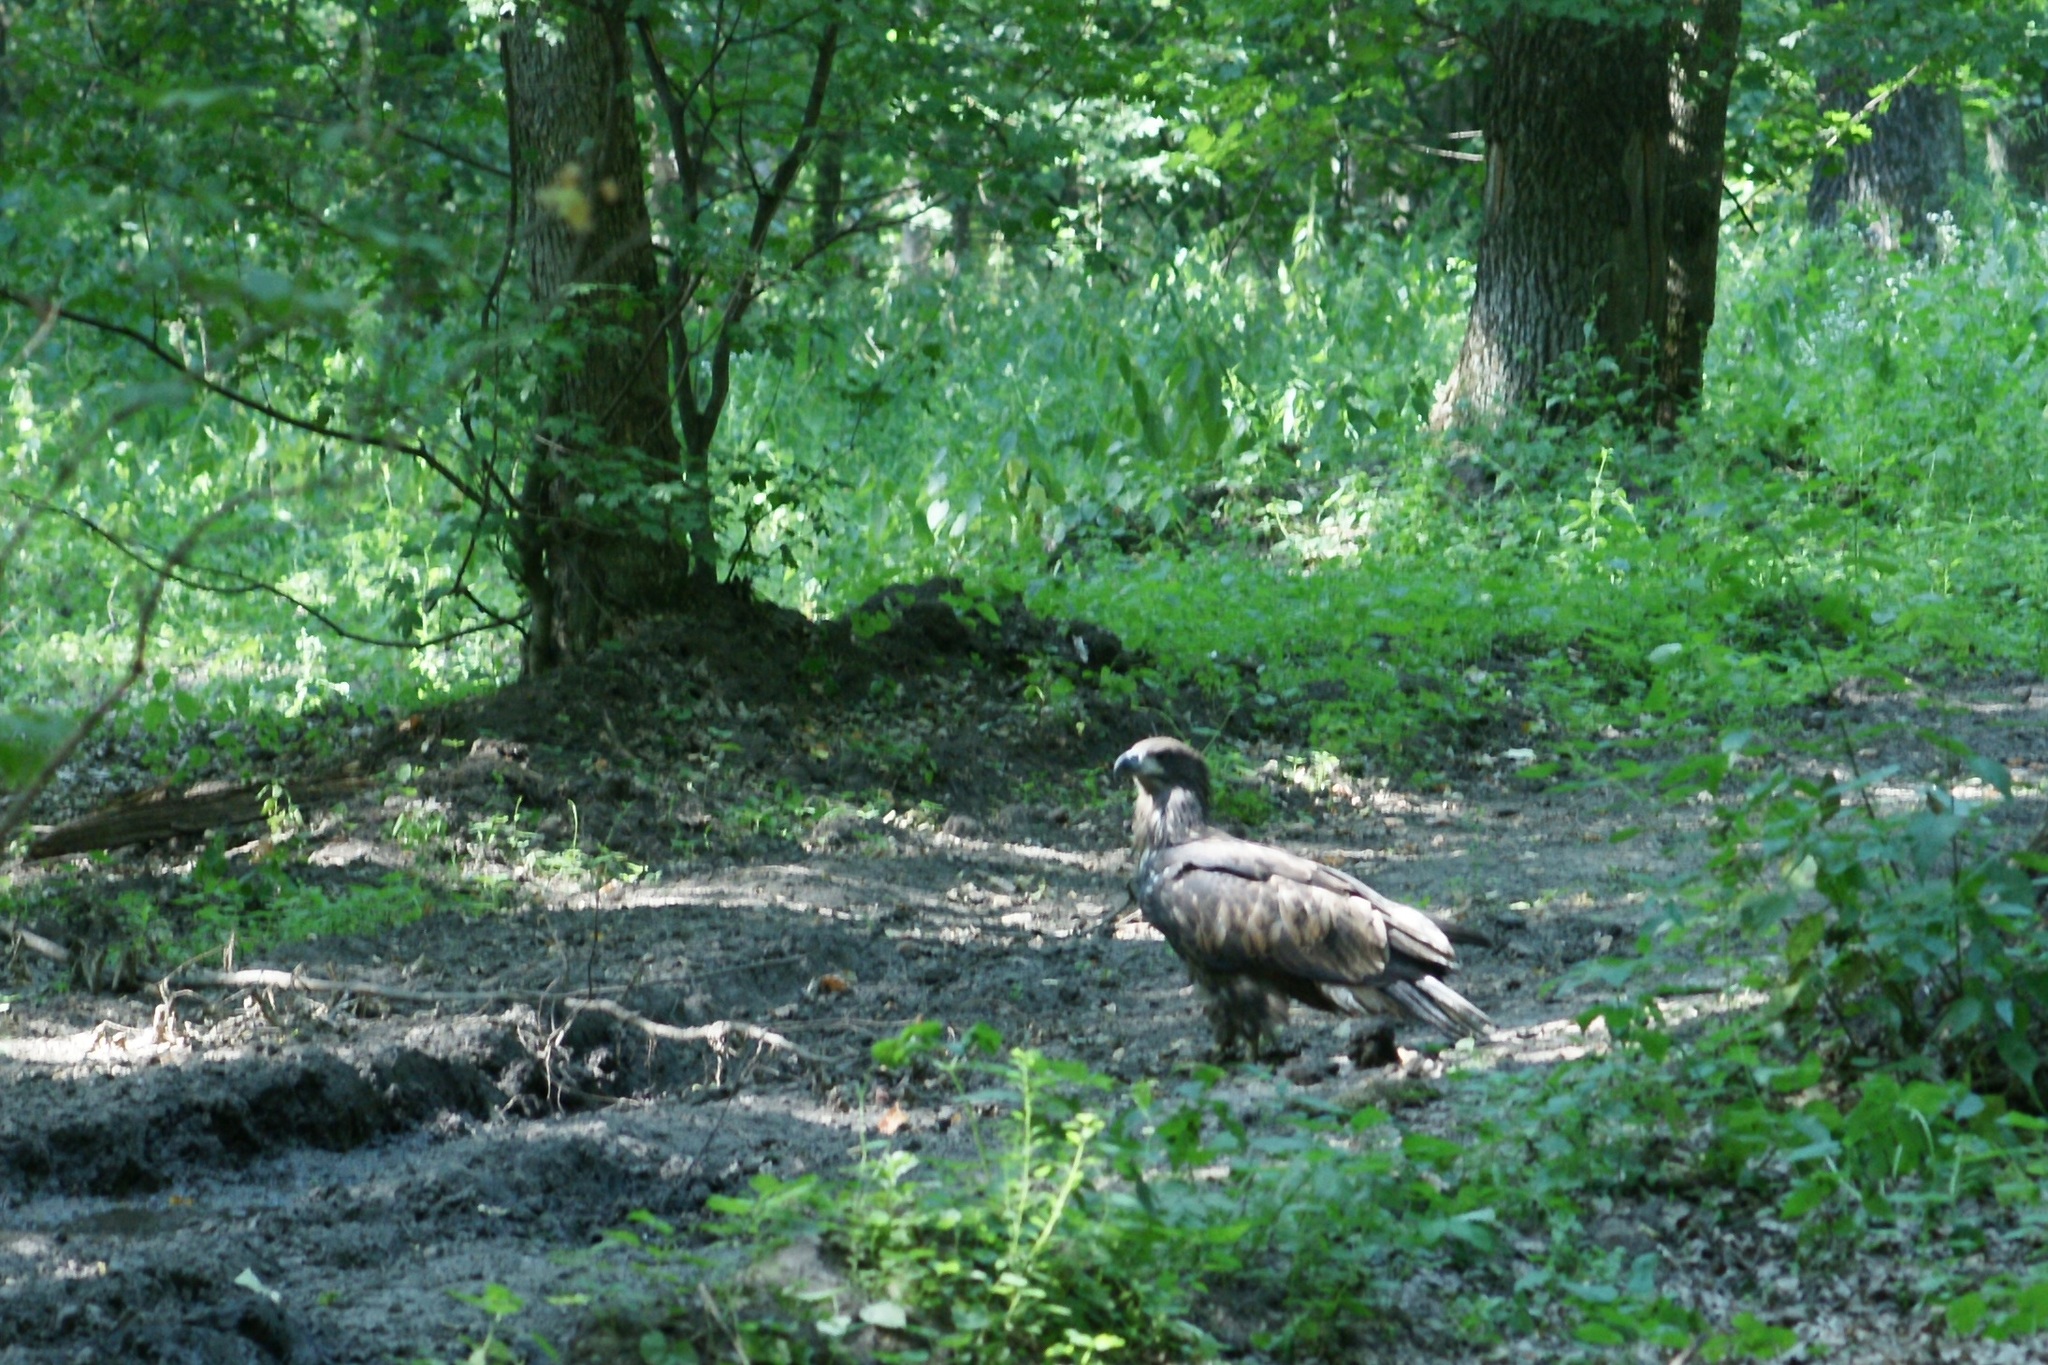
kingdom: Animalia
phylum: Chordata
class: Aves
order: Accipitriformes
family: Accipitridae
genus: Haliaeetus
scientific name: Haliaeetus albicilla
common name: White-tailed eagle
